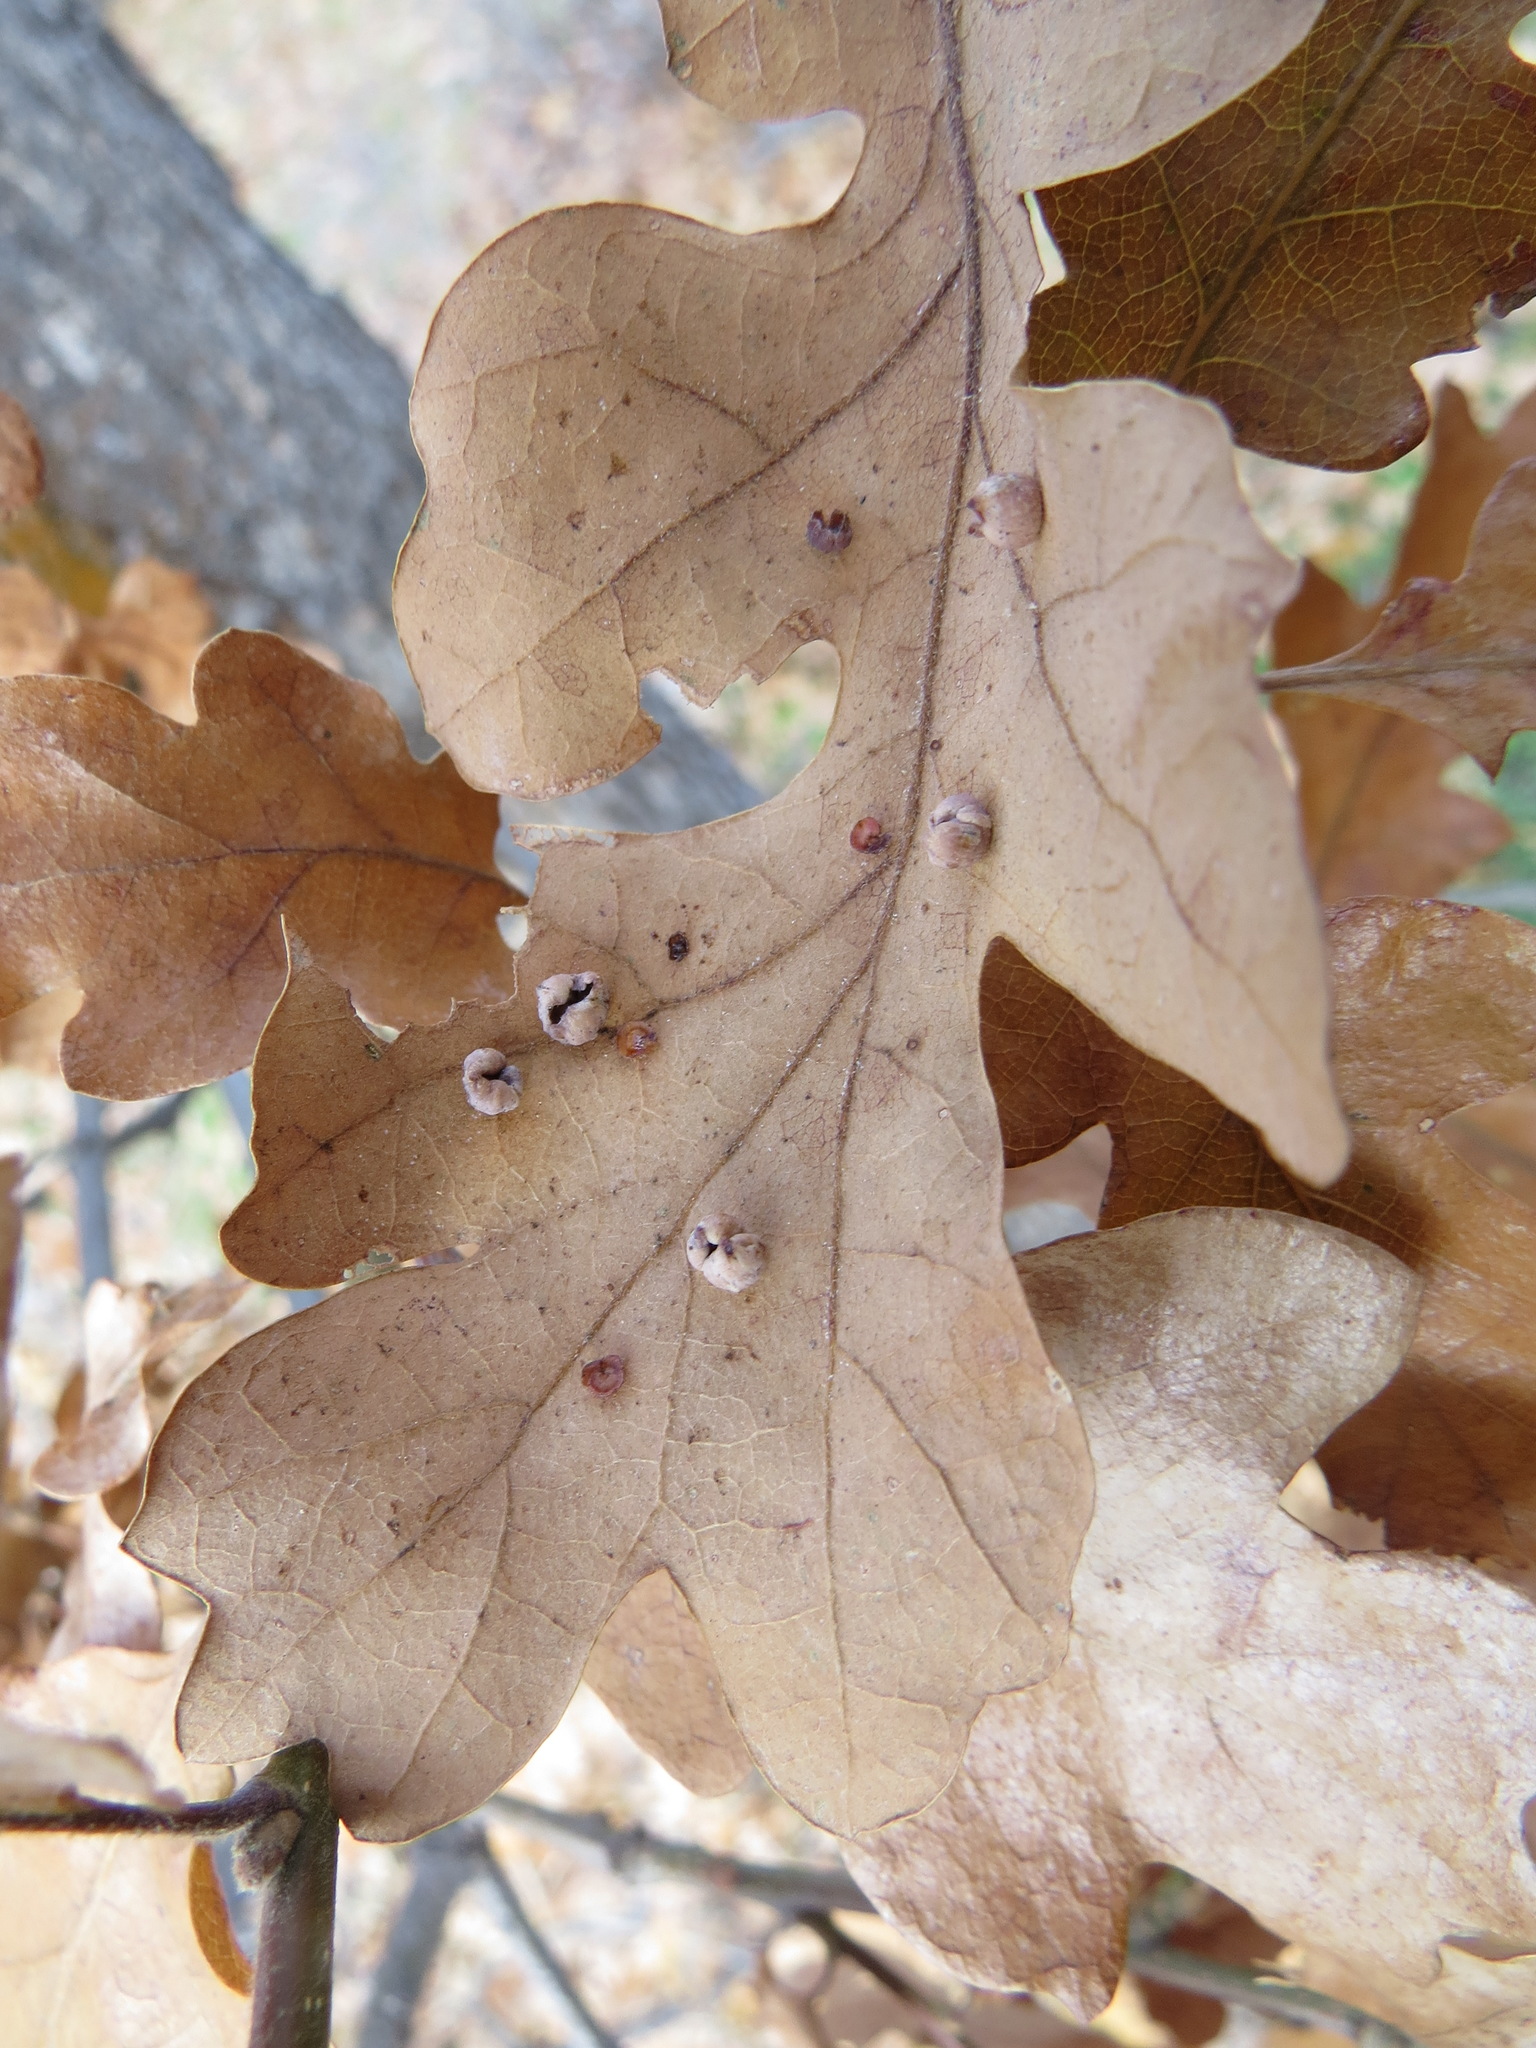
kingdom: Animalia
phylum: Arthropoda
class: Insecta
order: Hymenoptera
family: Cynipidae
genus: Andricus
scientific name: Andricus
